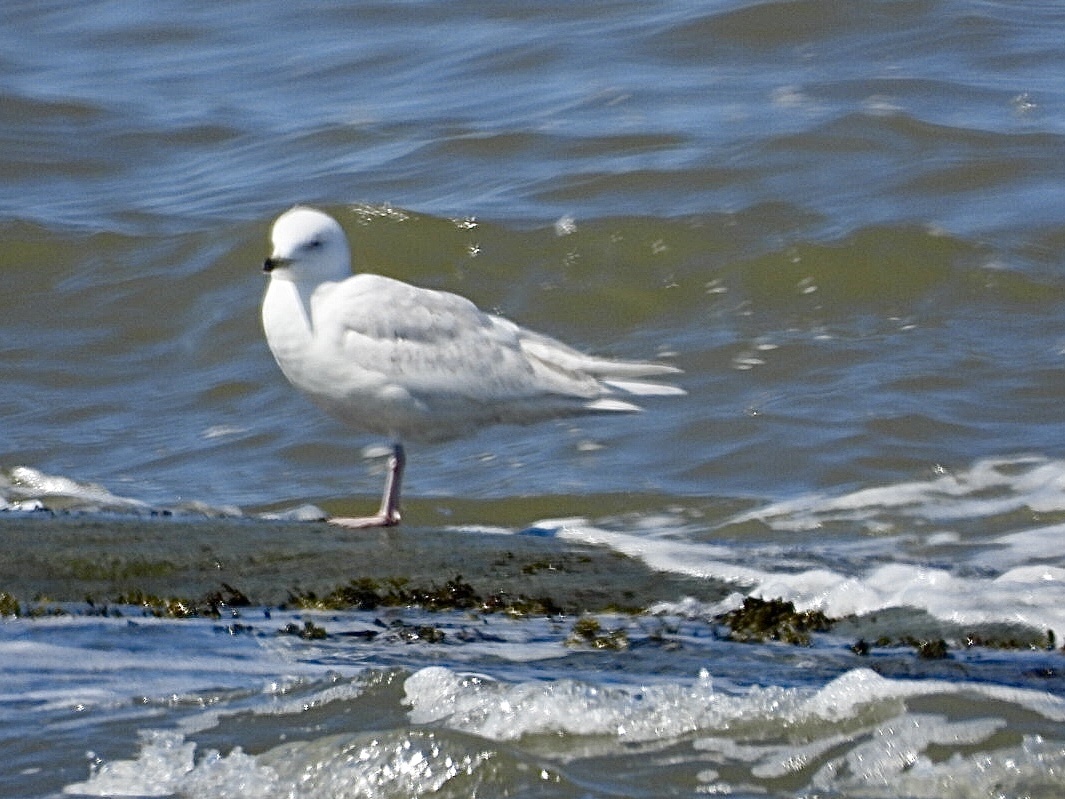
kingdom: Animalia
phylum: Chordata
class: Aves
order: Charadriiformes
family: Laridae
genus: Larus
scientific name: Larus glaucoides
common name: Iceland gull
